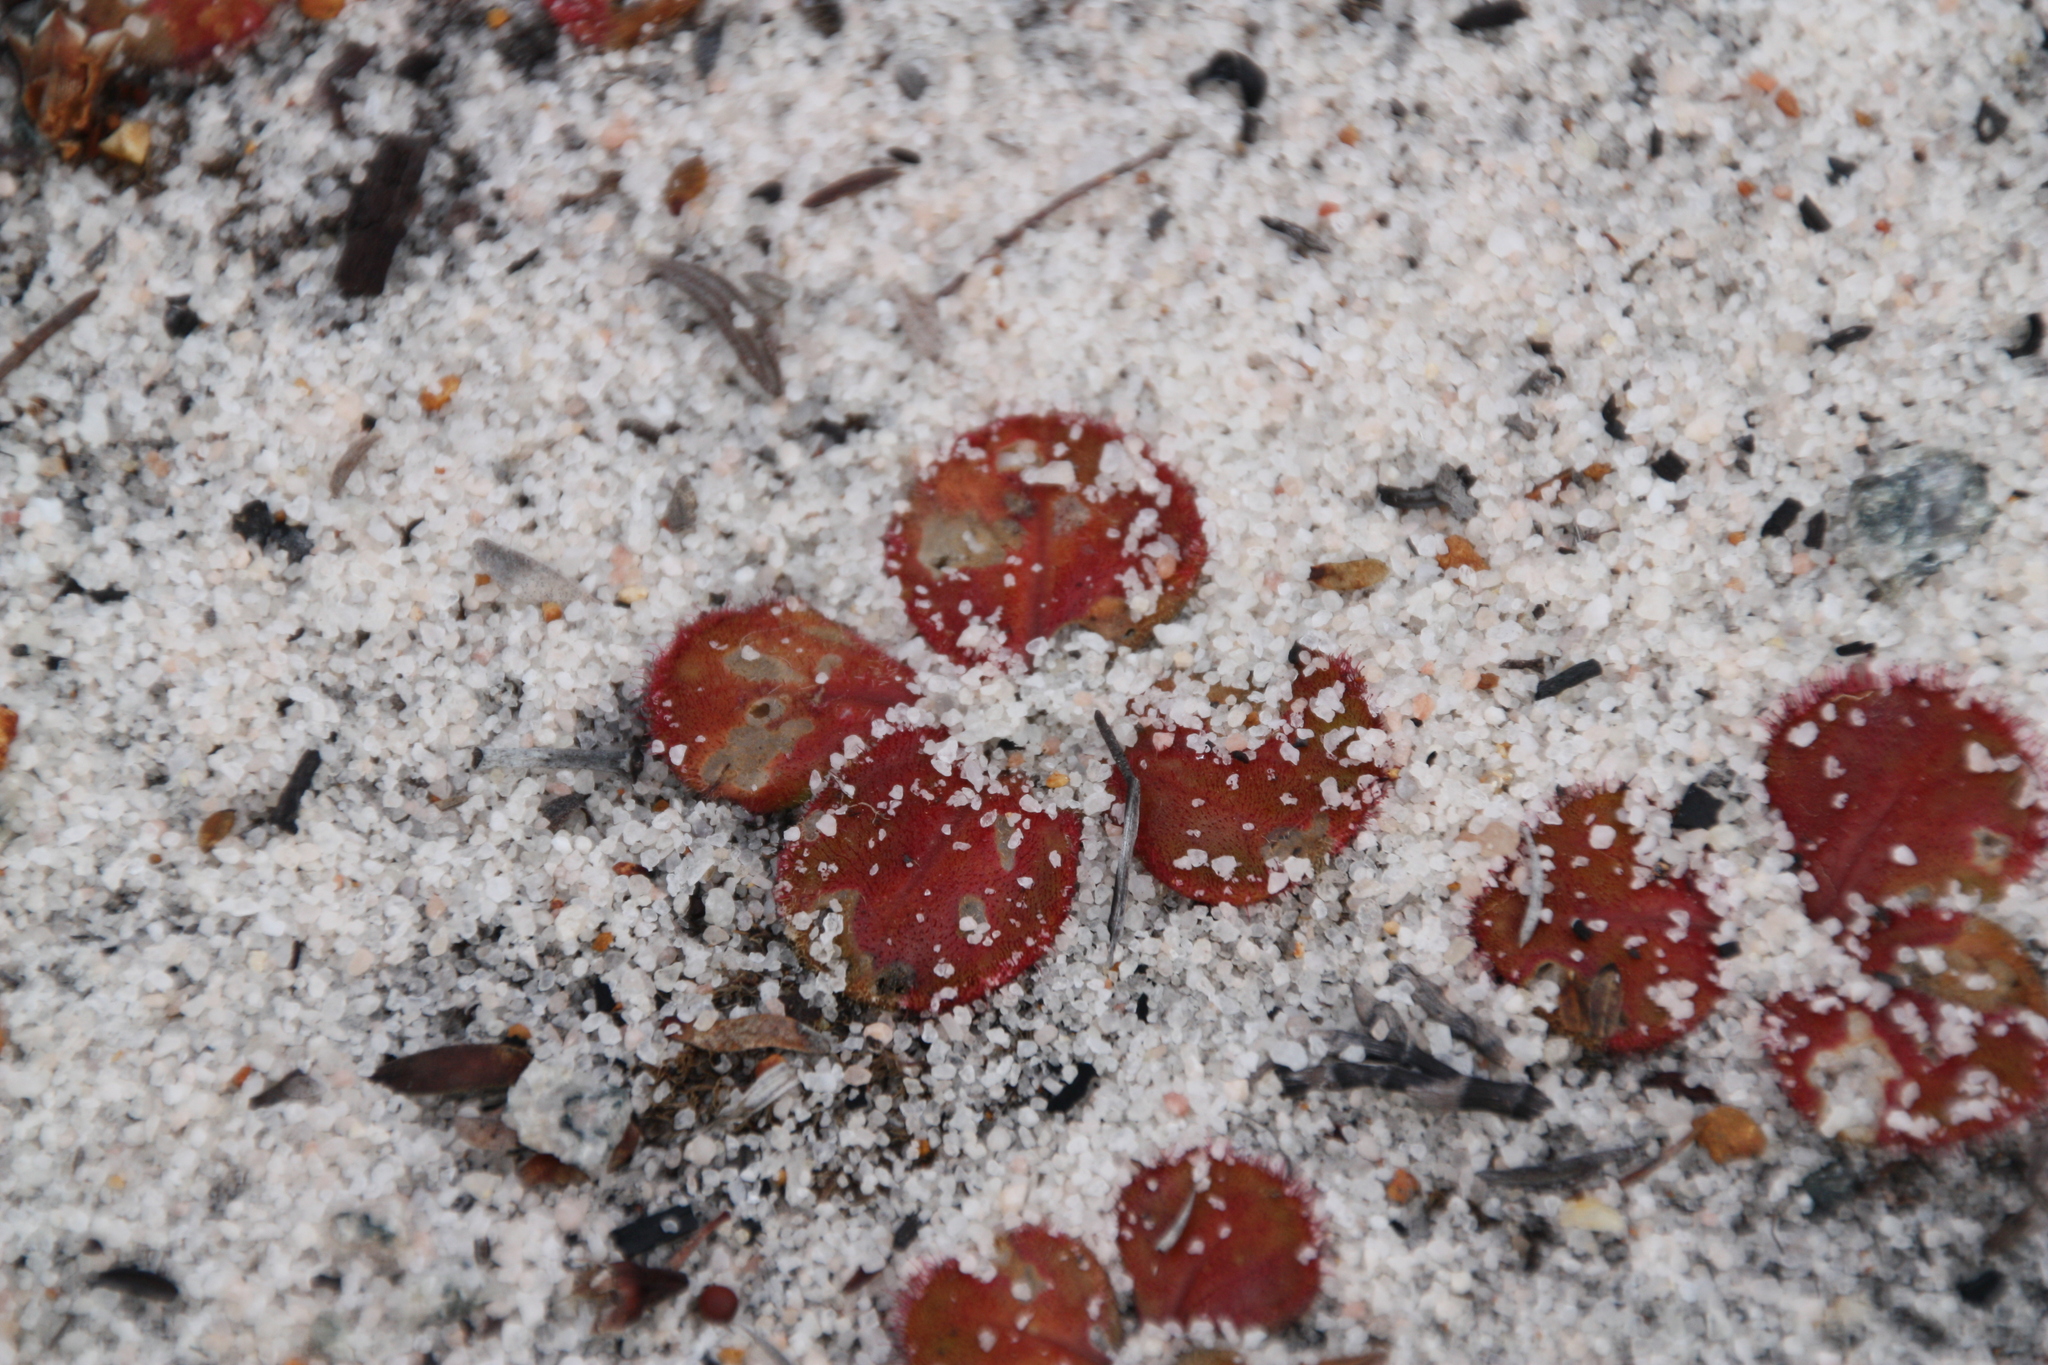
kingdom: Plantae
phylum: Tracheophyta
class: Magnoliopsida
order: Caryophyllales
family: Droseraceae
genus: Drosera
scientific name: Drosera erythrorhiza
